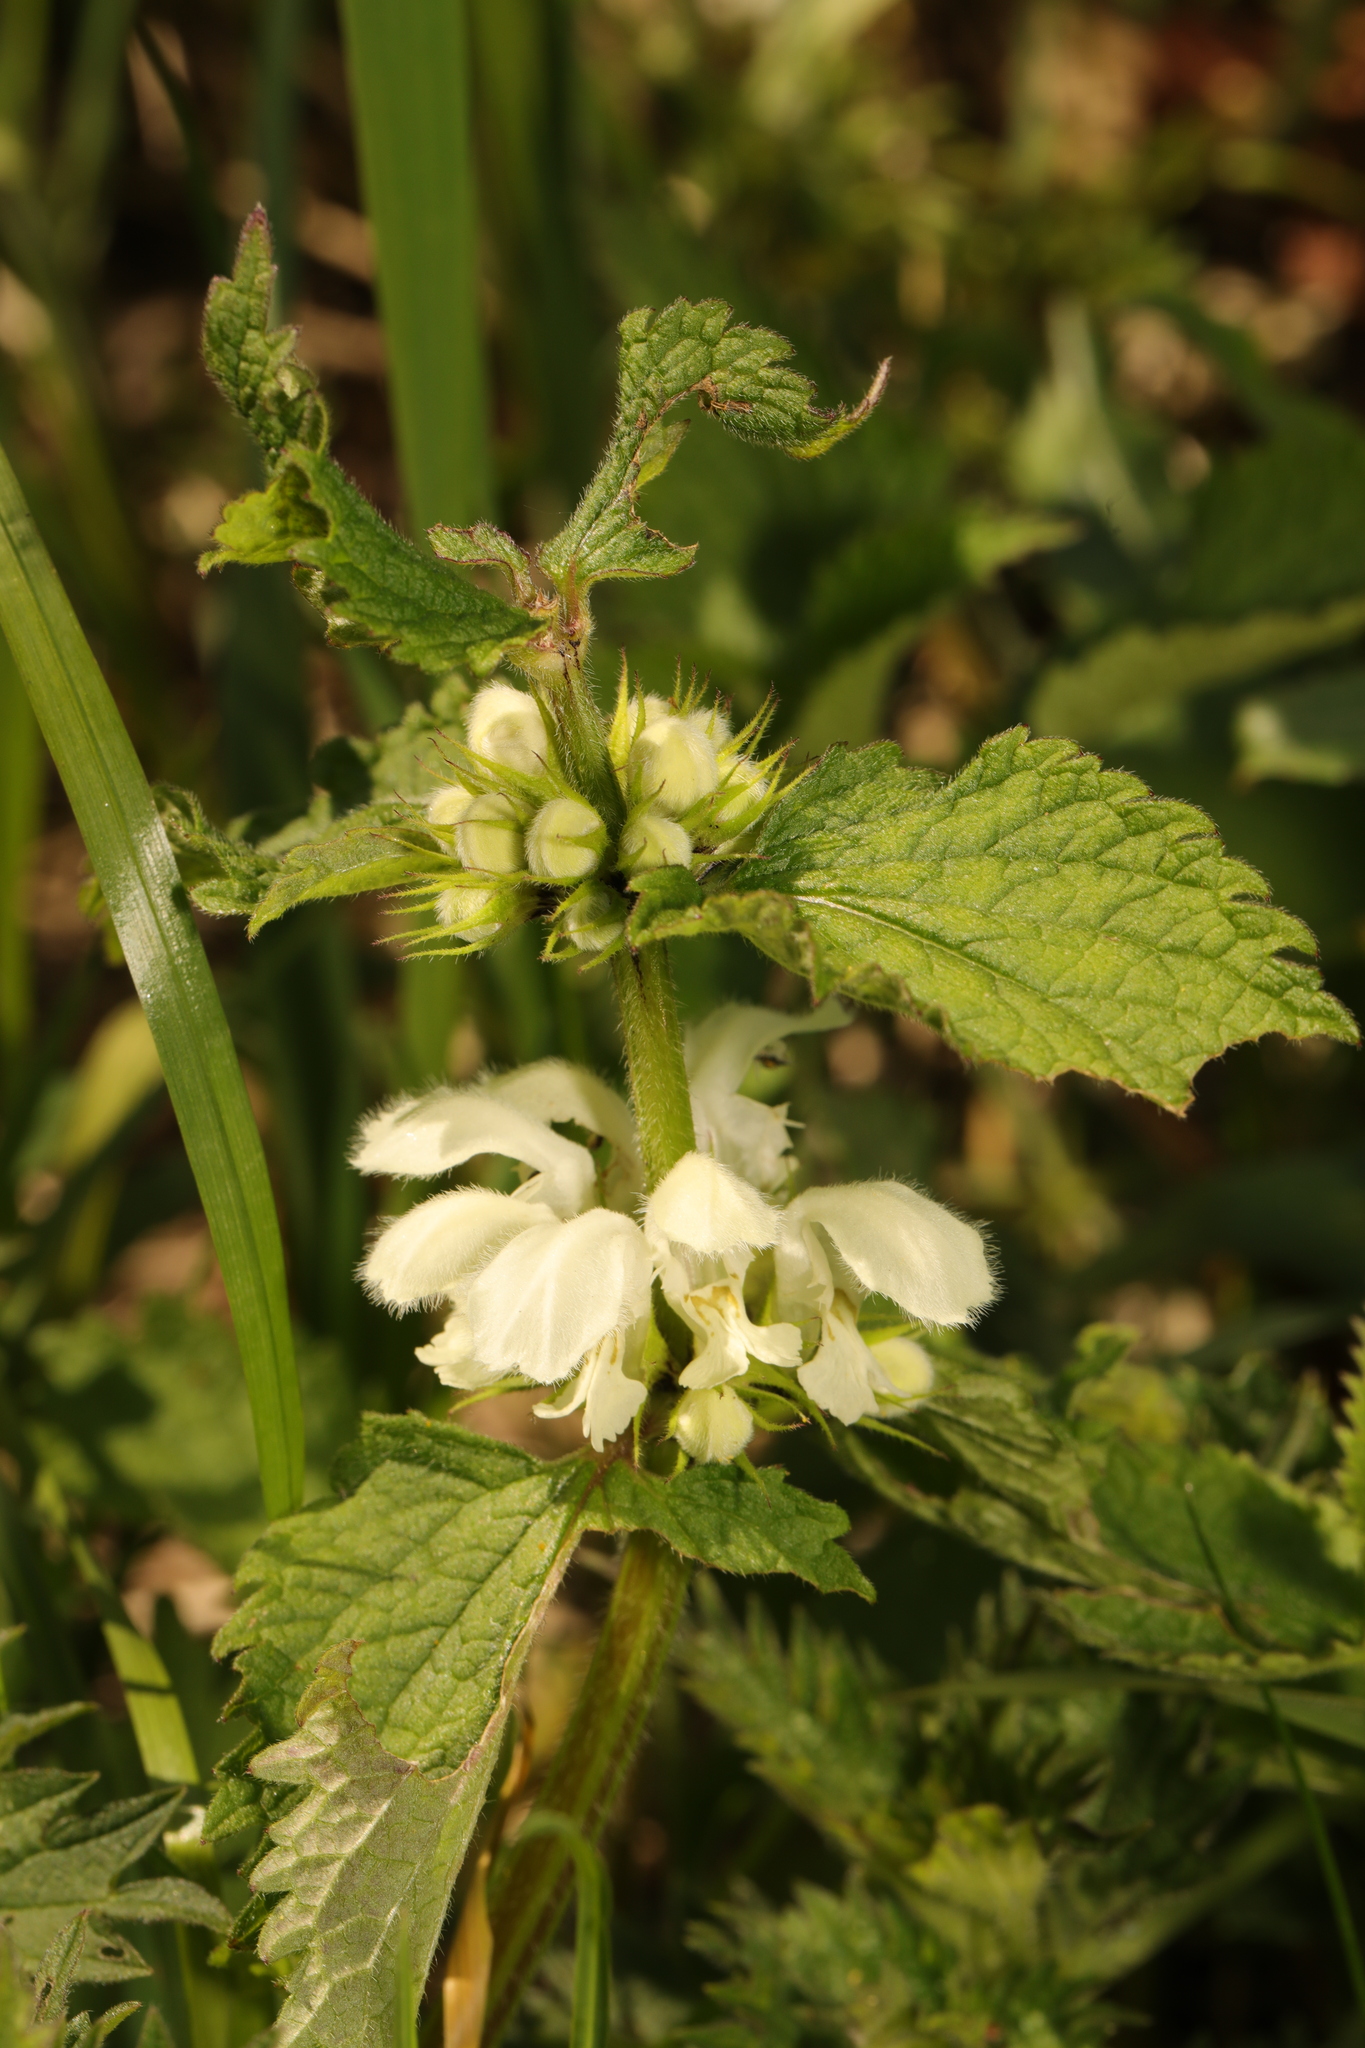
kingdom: Plantae
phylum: Tracheophyta
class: Magnoliopsida
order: Lamiales
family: Lamiaceae
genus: Lamium
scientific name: Lamium album
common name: White dead-nettle
